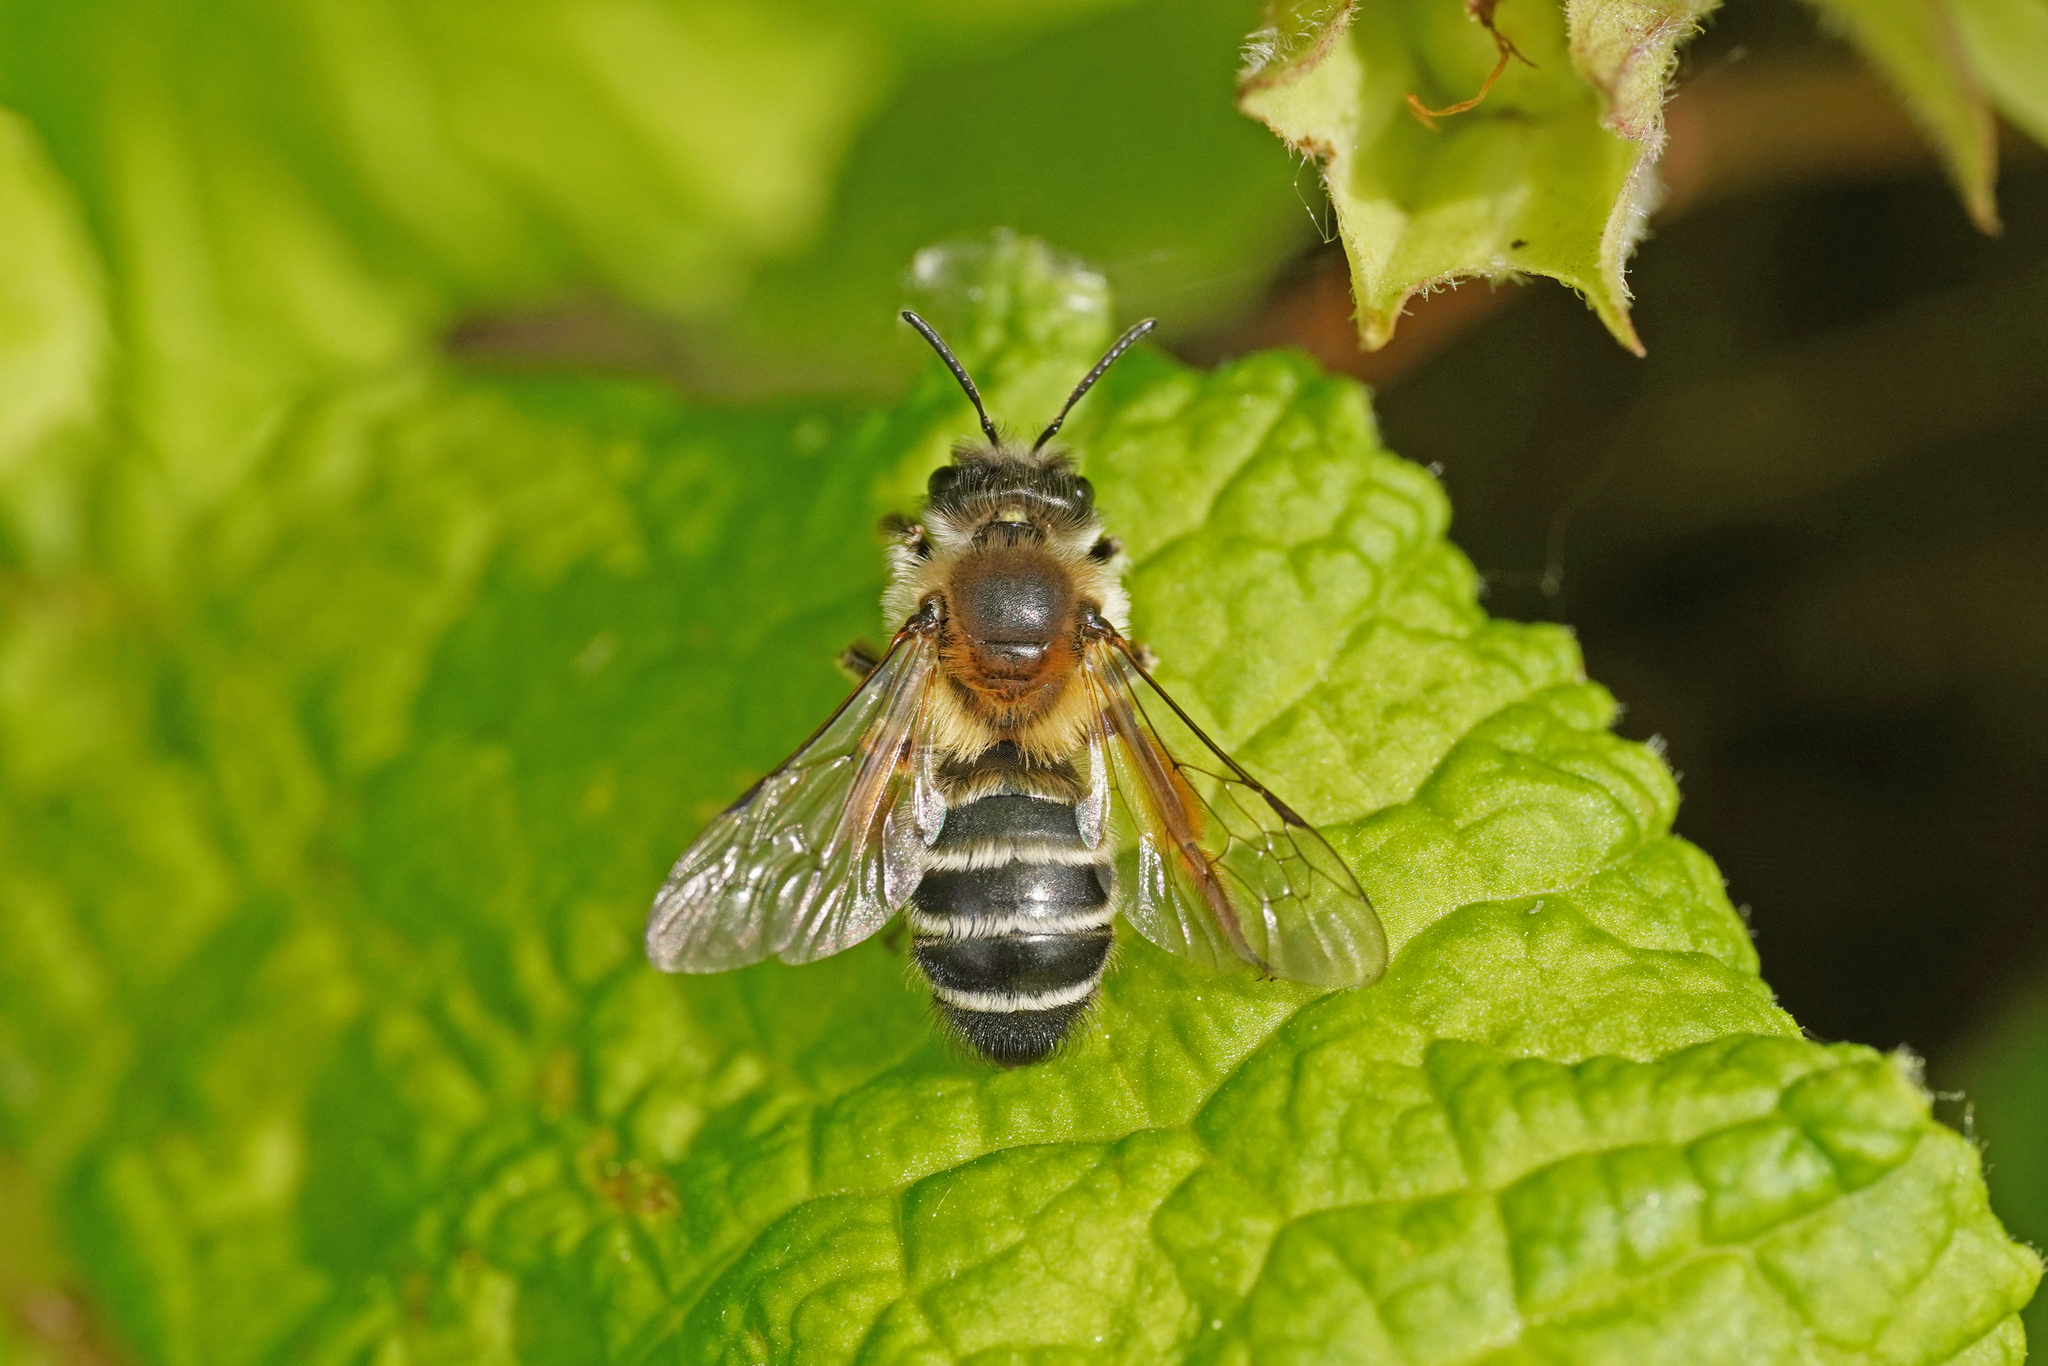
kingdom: Animalia
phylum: Arthropoda
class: Insecta
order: Hymenoptera
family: Andrenidae
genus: Andrena
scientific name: Andrena gravida
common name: White-bellied mining bee
